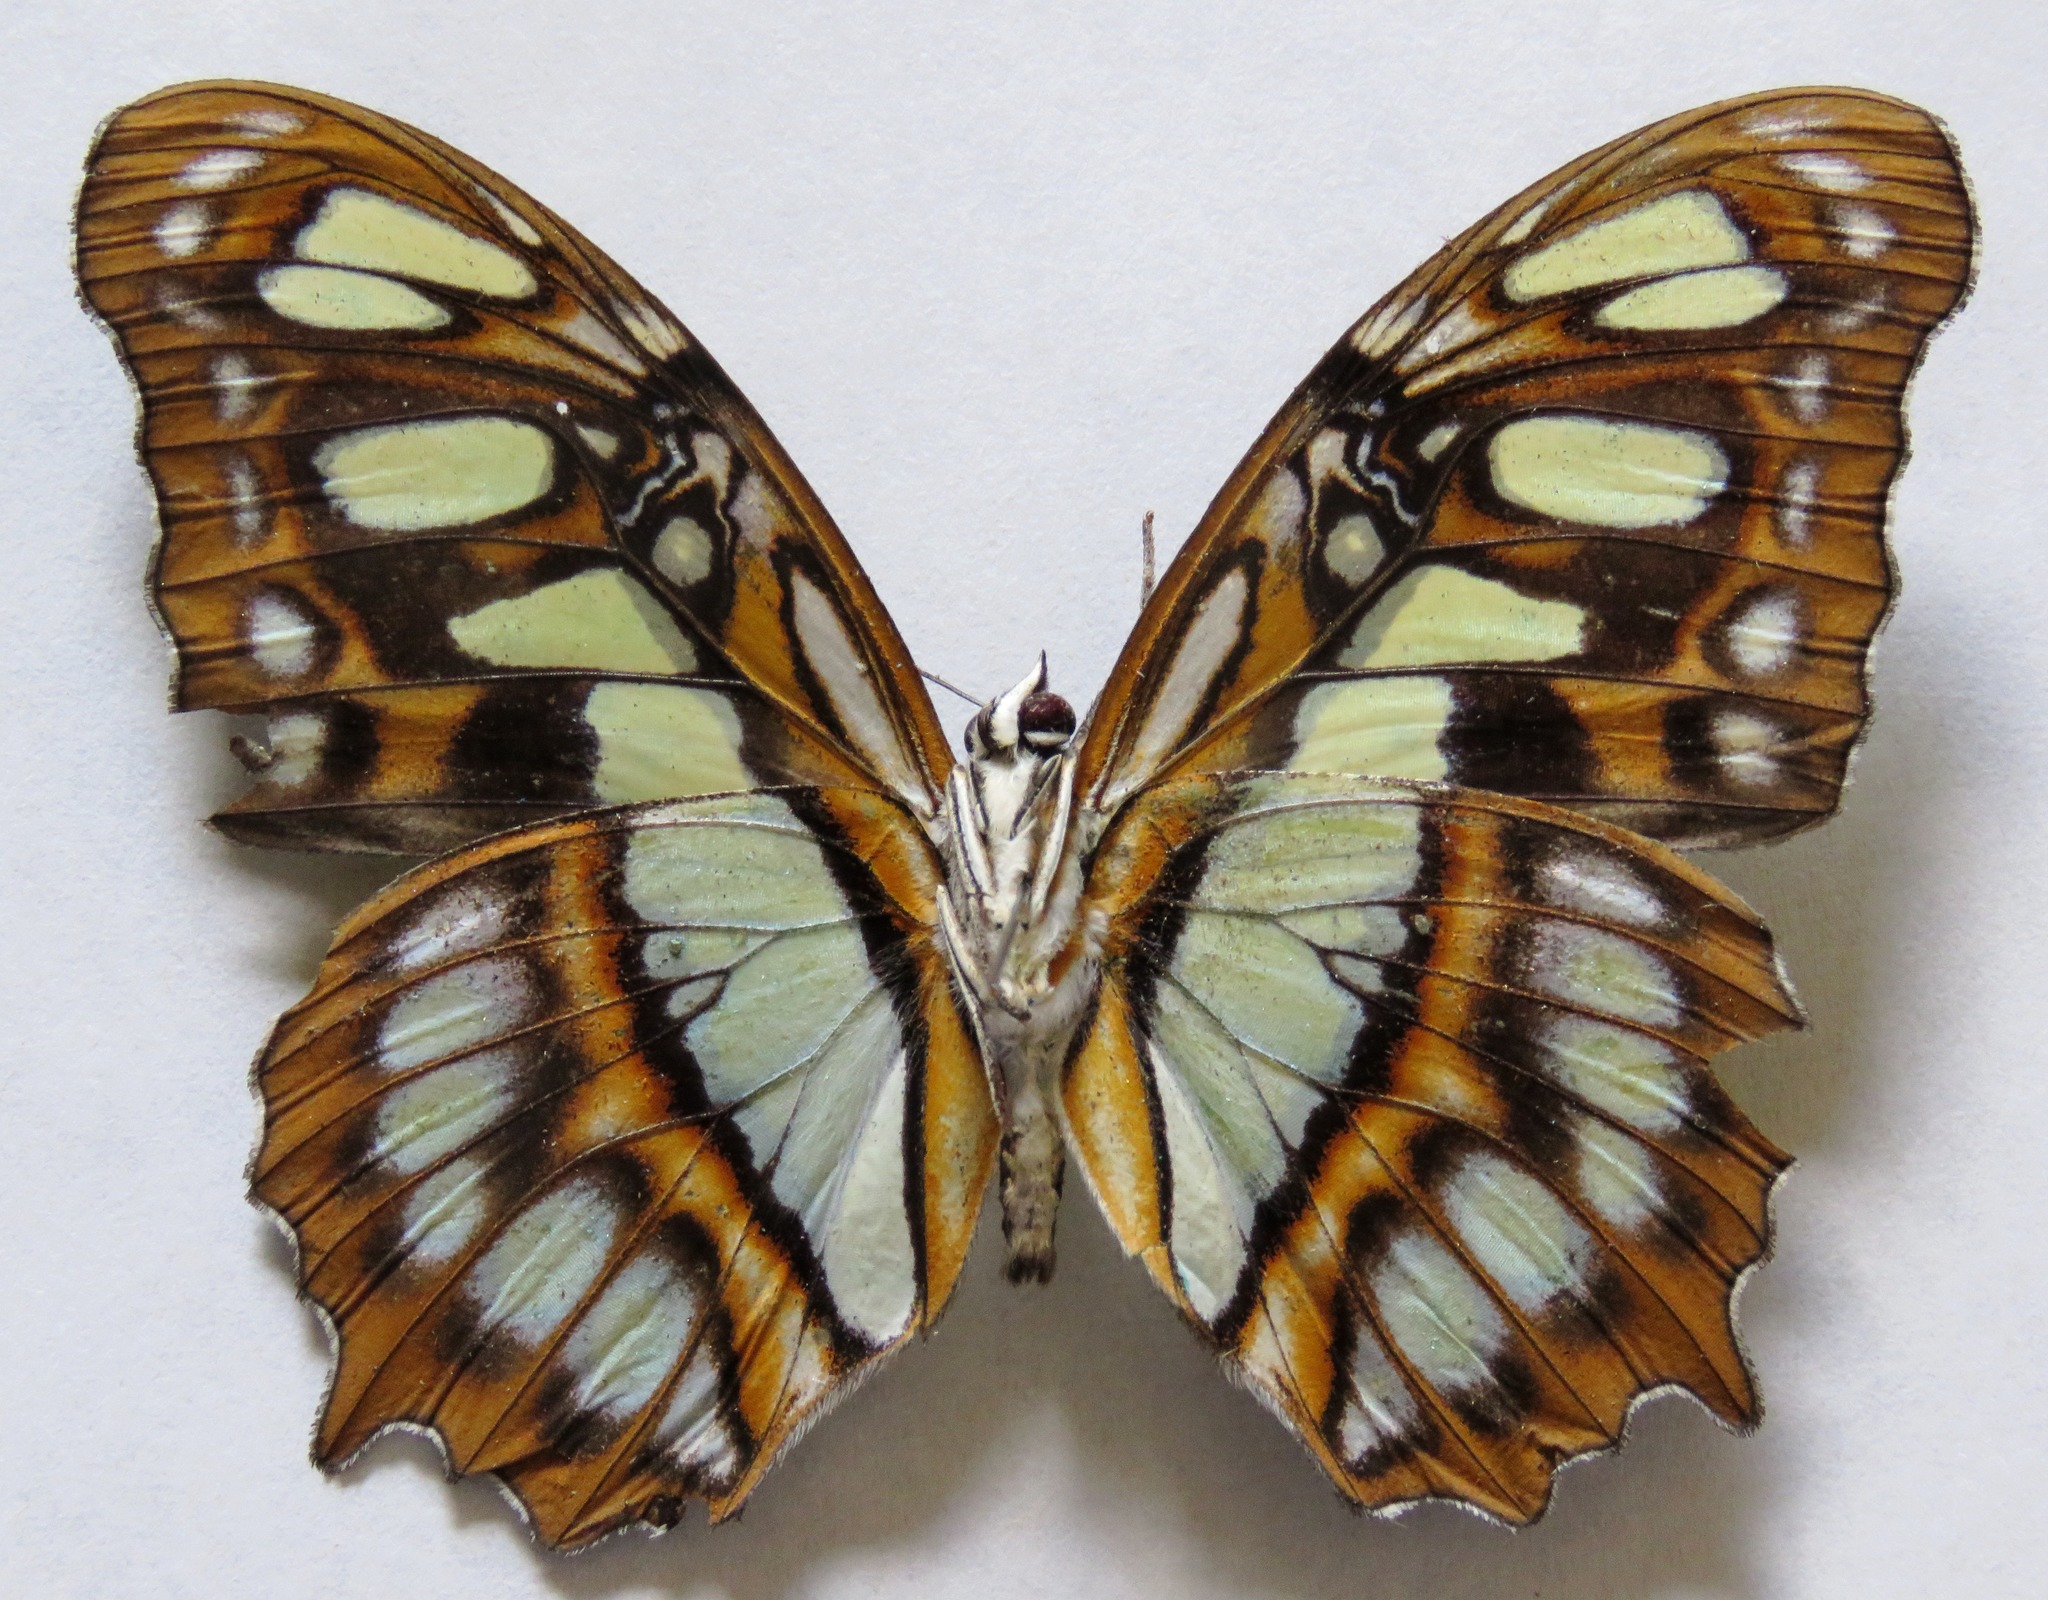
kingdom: Animalia
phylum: Arthropoda
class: Insecta
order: Lepidoptera
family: Nymphalidae
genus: Siproeta
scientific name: Siproeta stelenes
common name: Malachite
